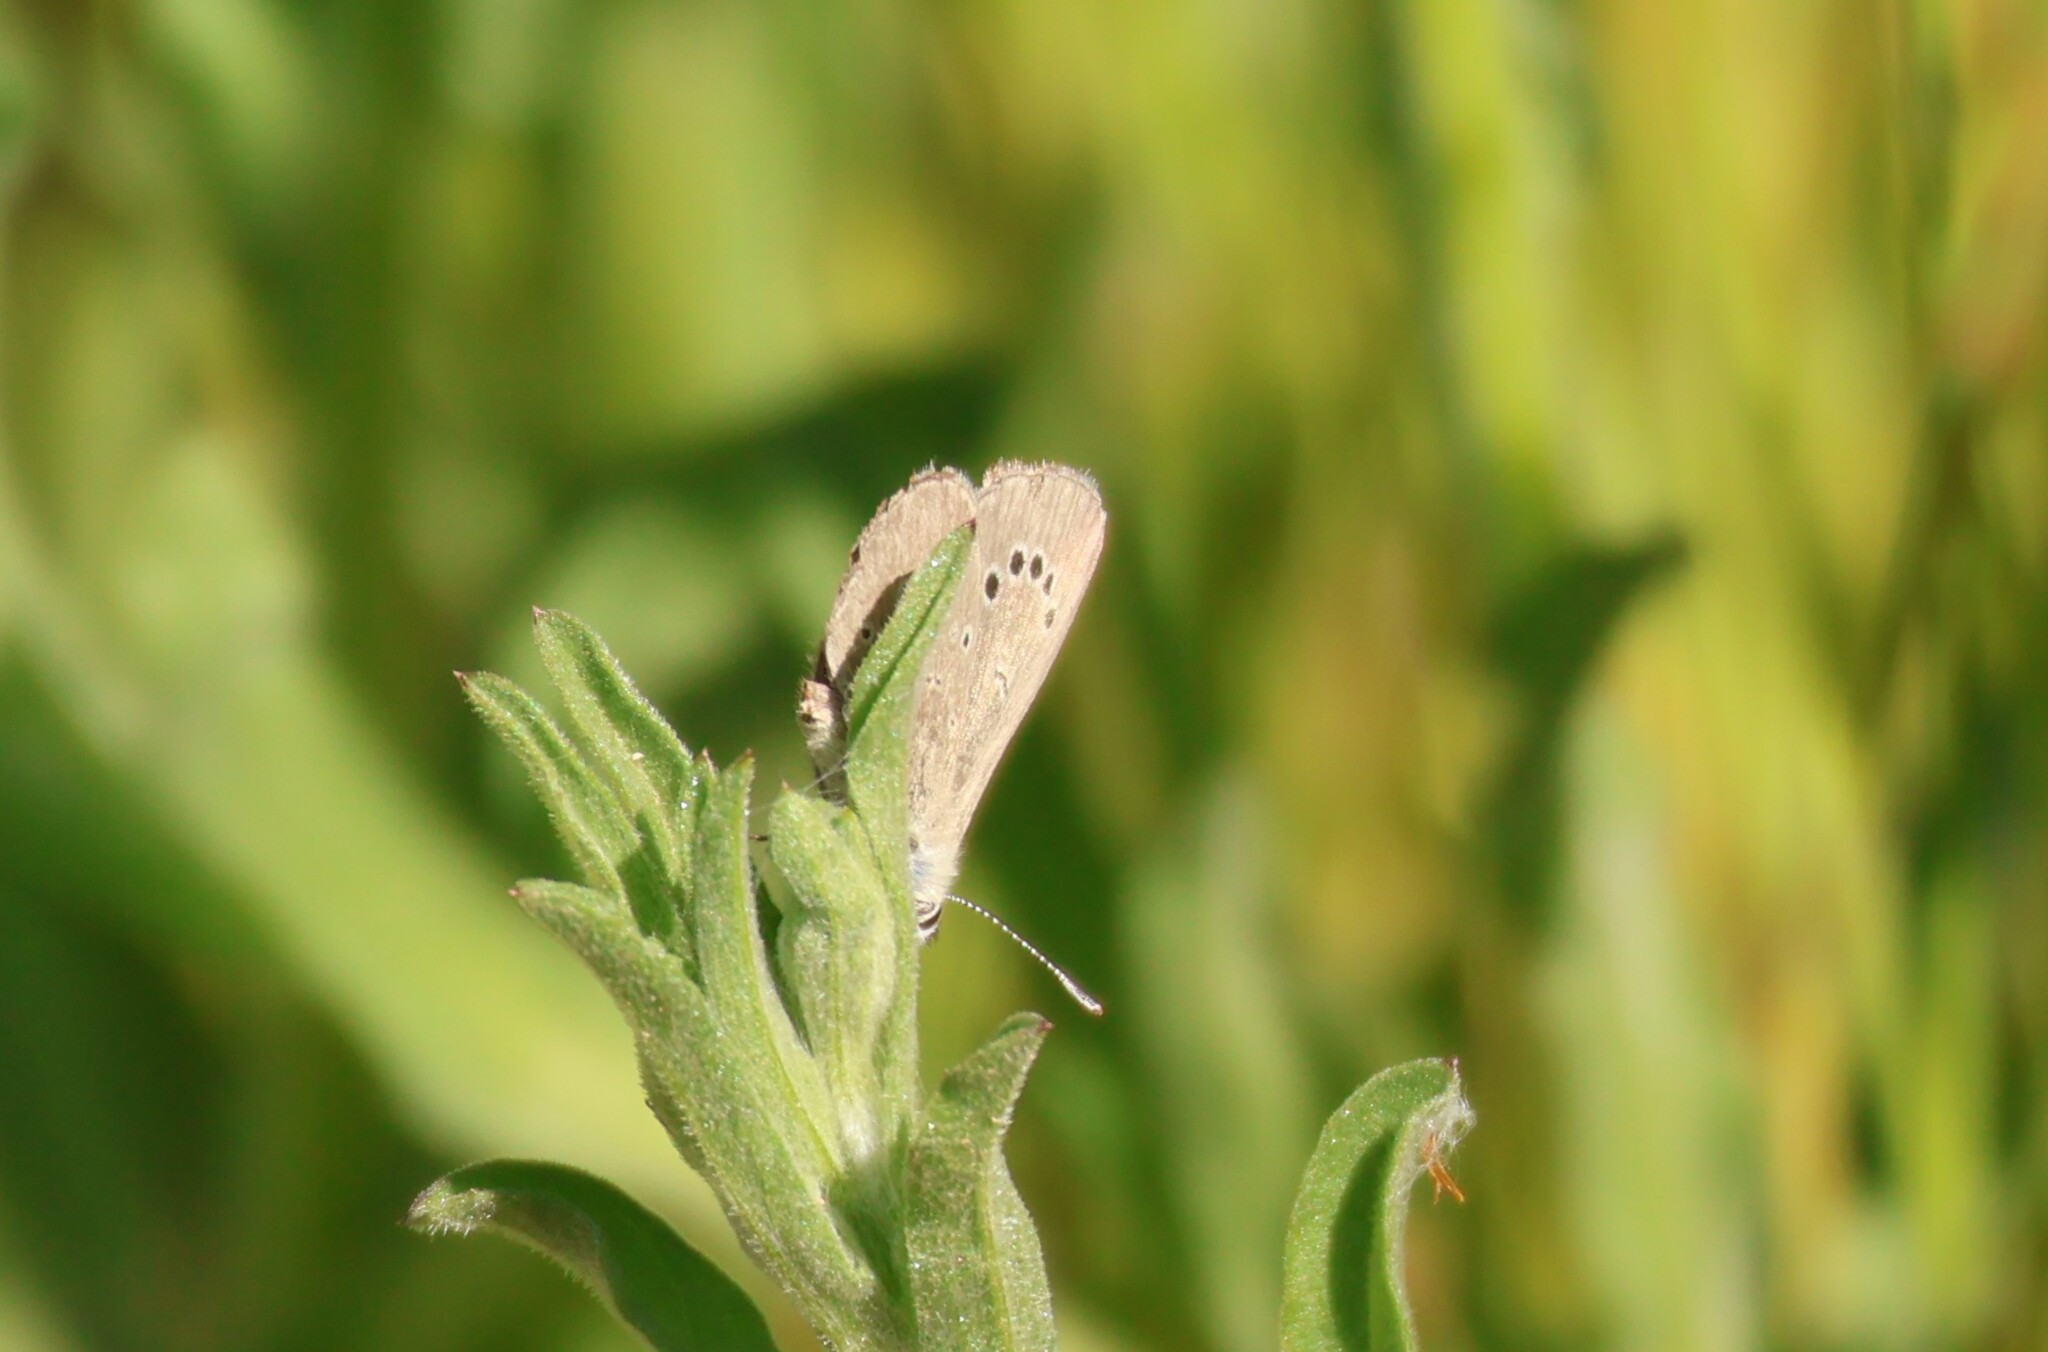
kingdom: Animalia
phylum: Arthropoda
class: Insecta
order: Lepidoptera
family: Lycaenidae
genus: Glaucopsyche
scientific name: Glaucopsyche lygdamus
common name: Silvery blue
